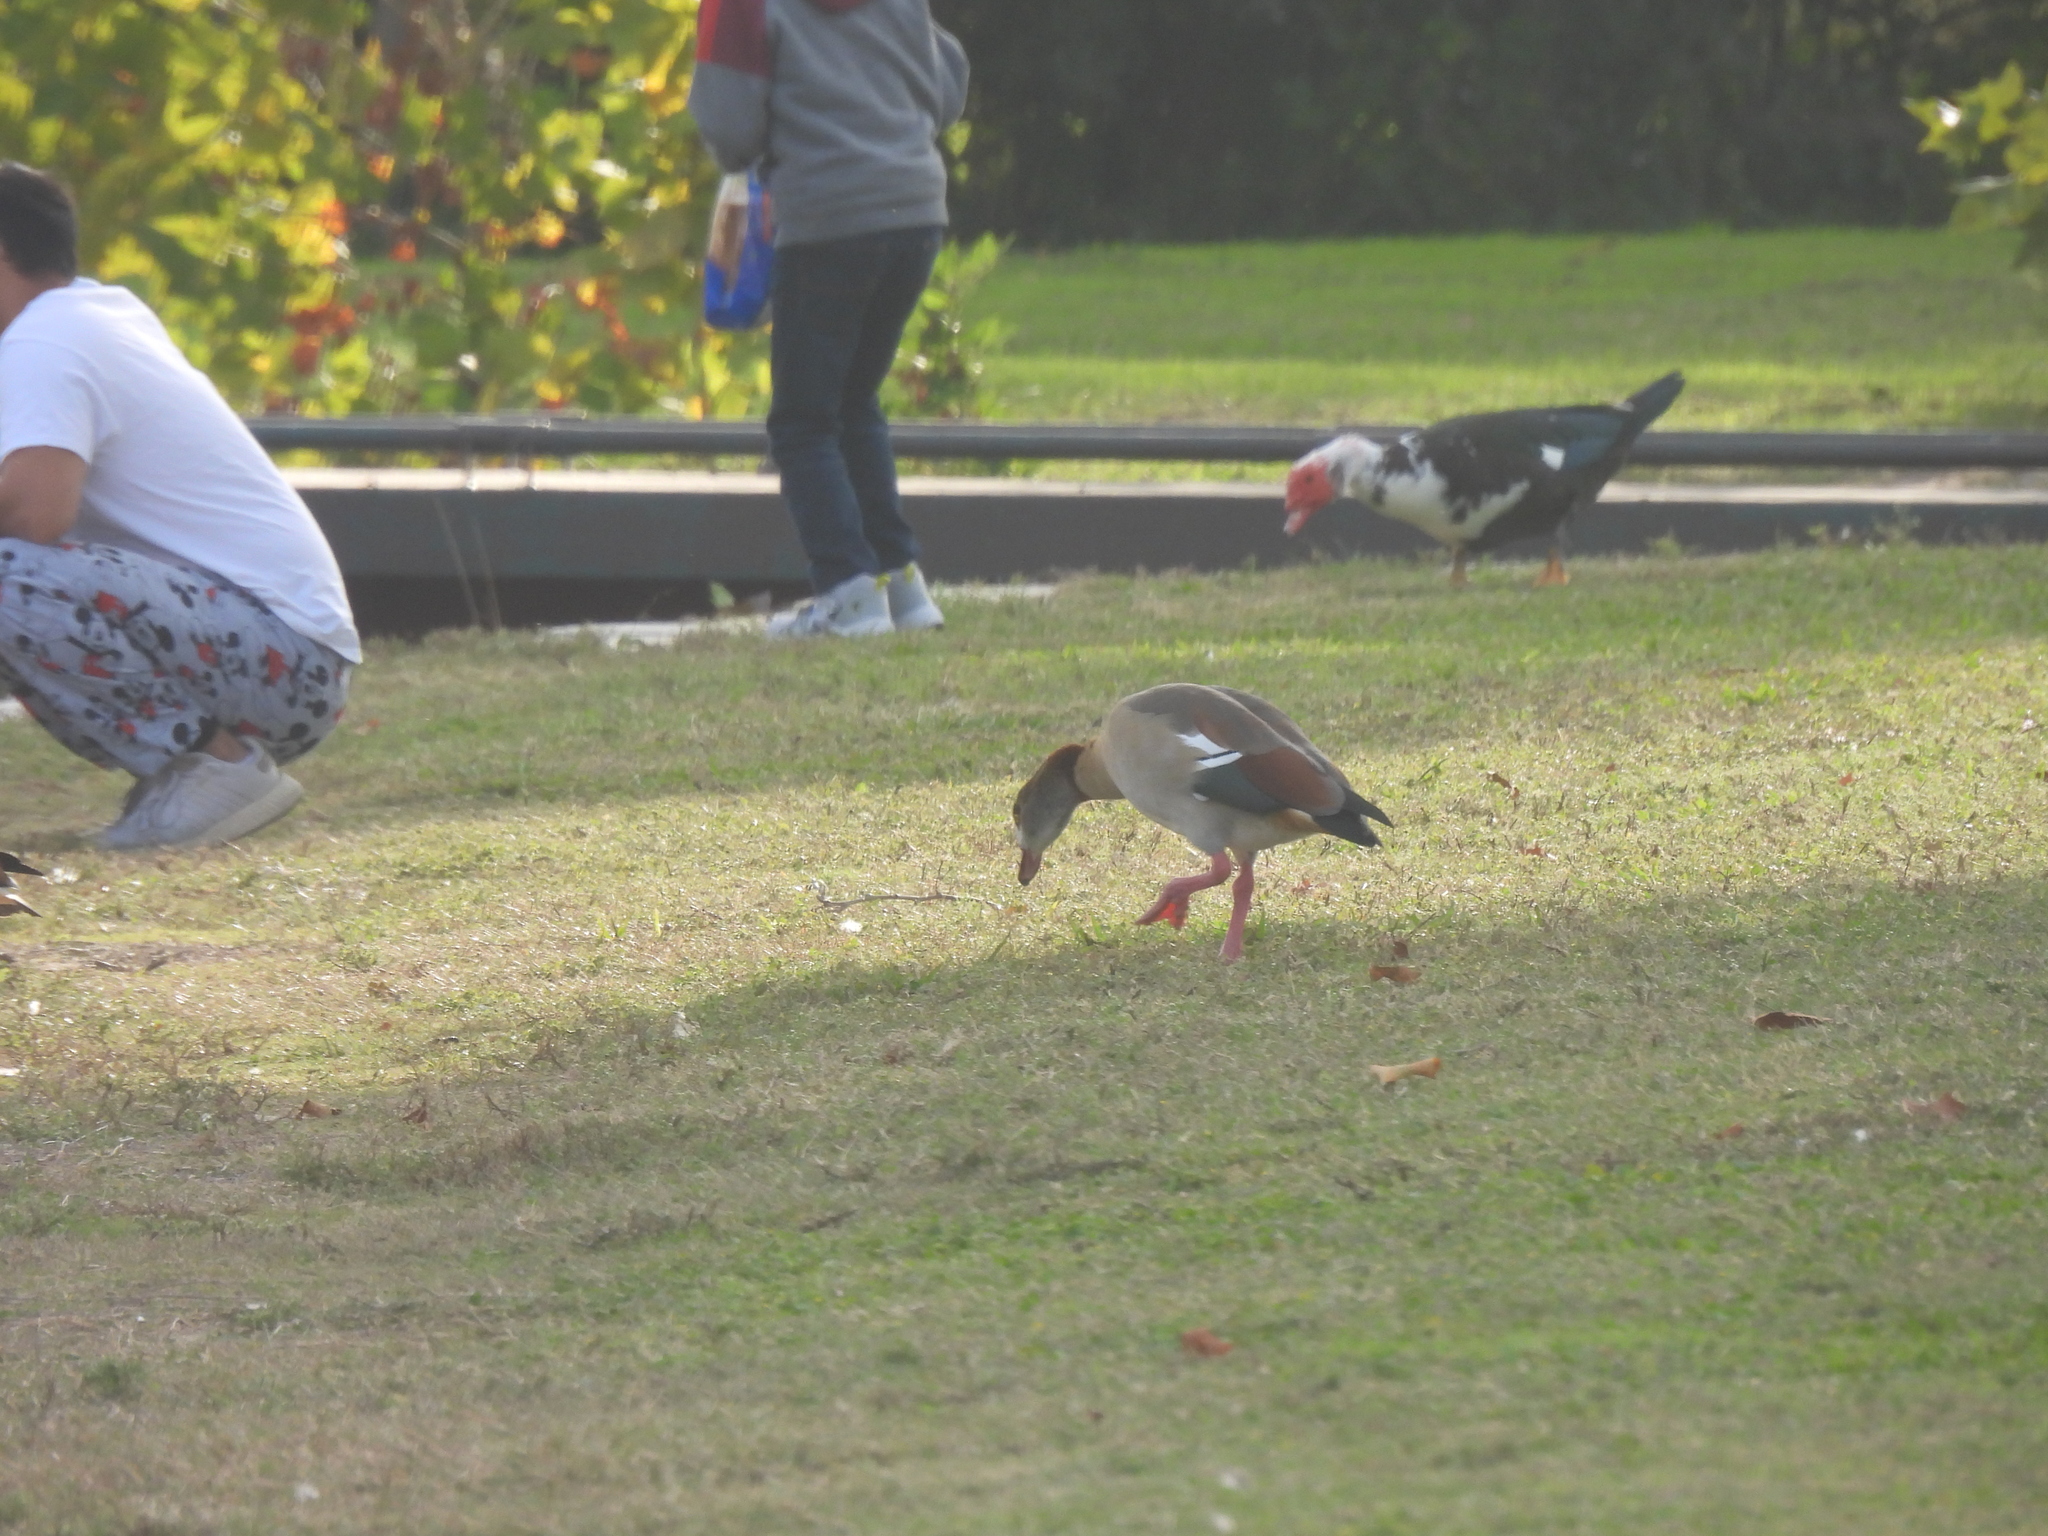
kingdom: Animalia
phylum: Chordata
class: Aves
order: Anseriformes
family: Anatidae
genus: Alopochen
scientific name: Alopochen aegyptiaca
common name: Egyptian goose
